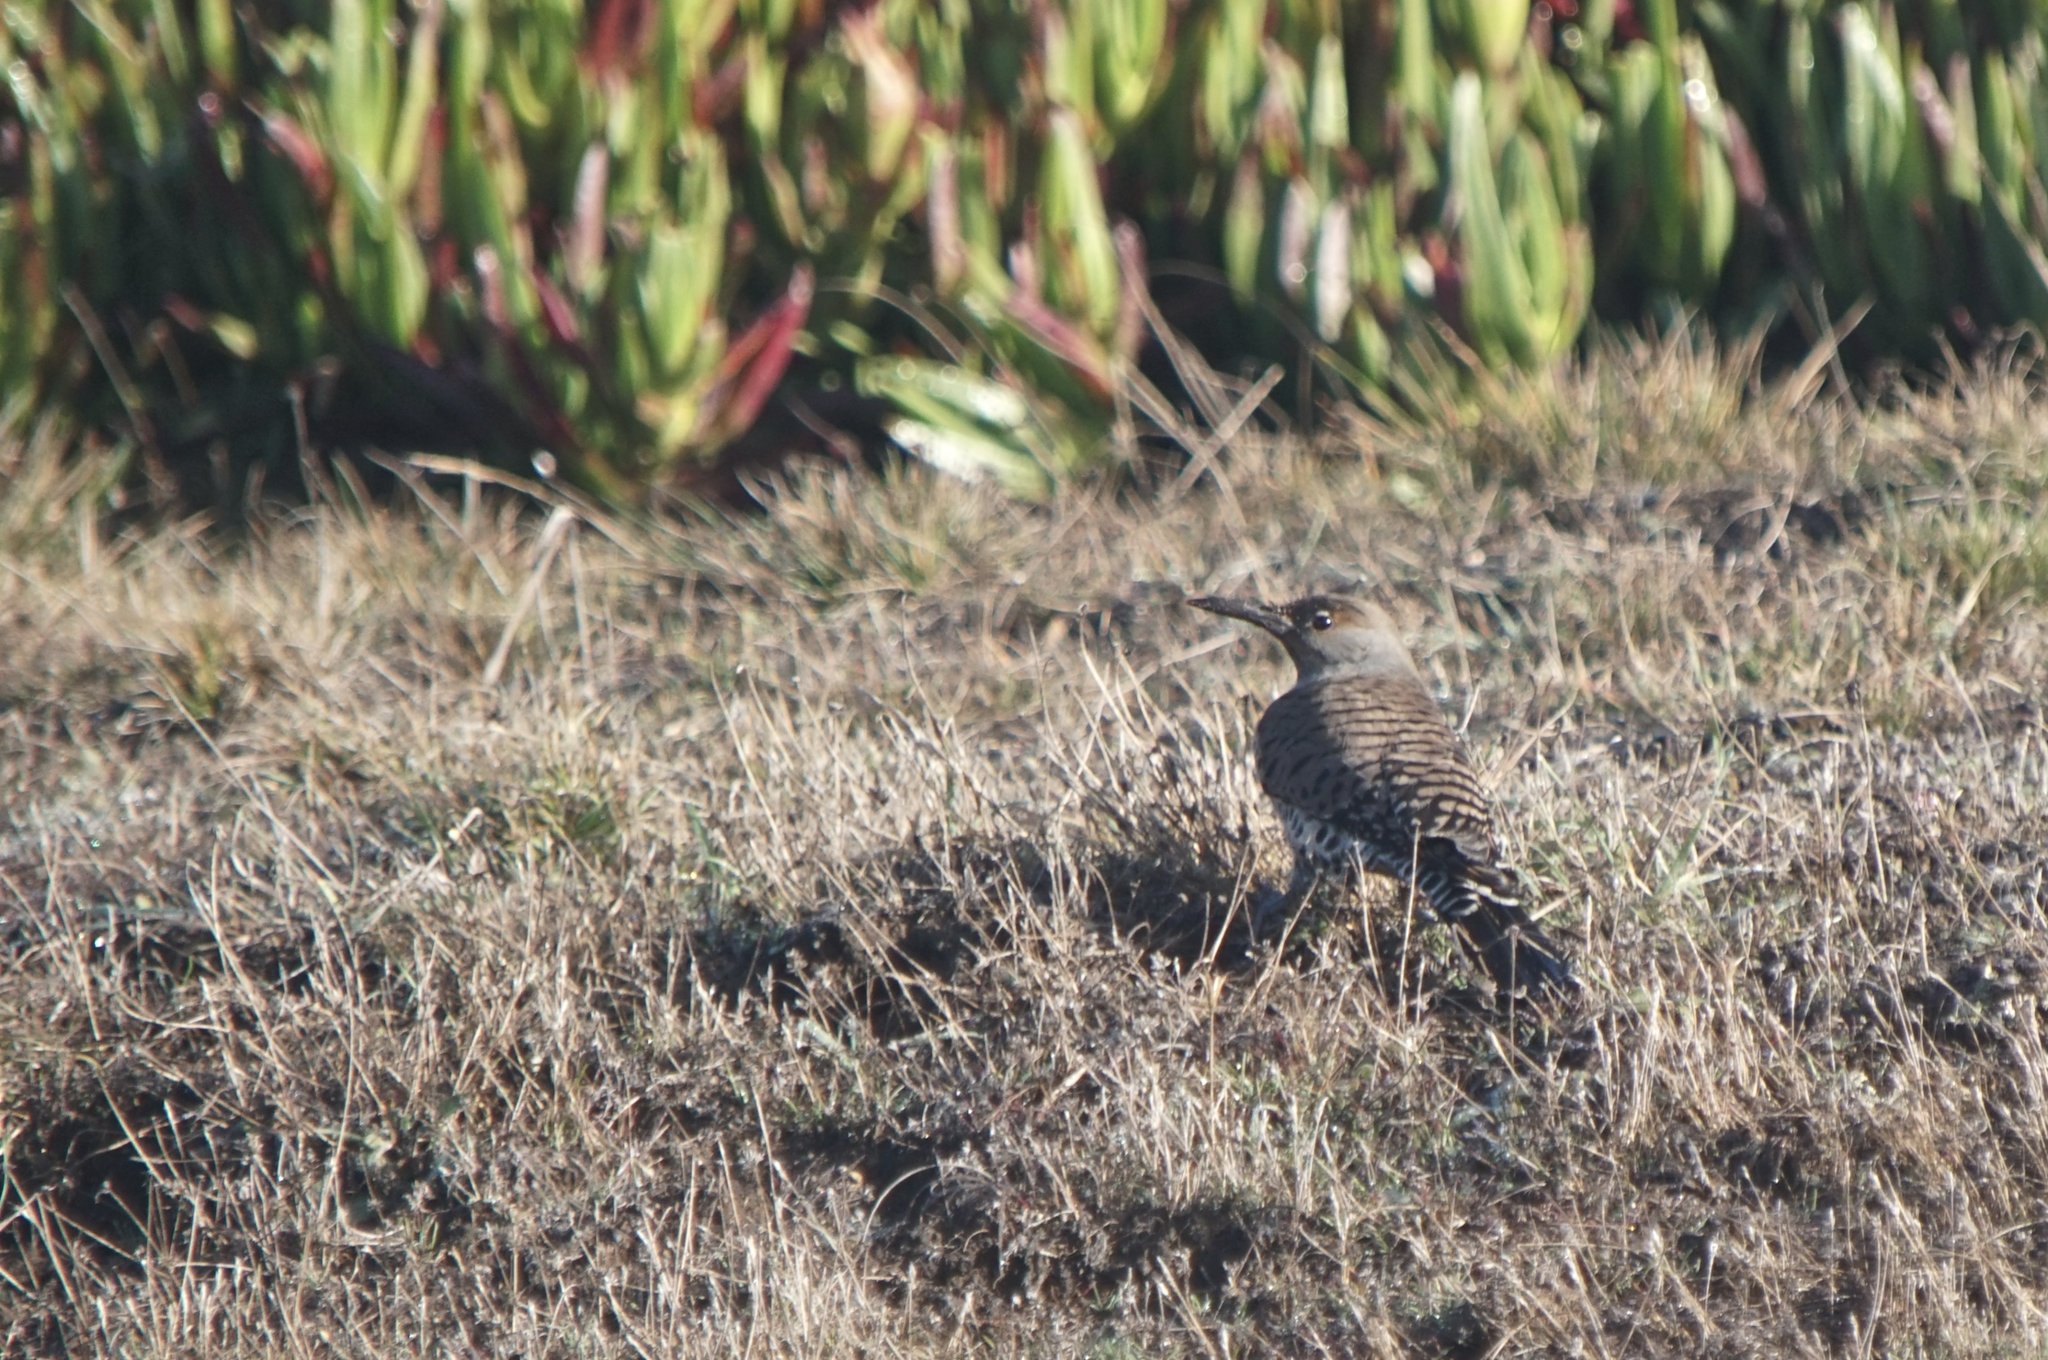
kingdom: Animalia
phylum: Chordata
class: Aves
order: Piciformes
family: Picidae
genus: Colaptes
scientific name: Colaptes auratus
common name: Northern flicker
